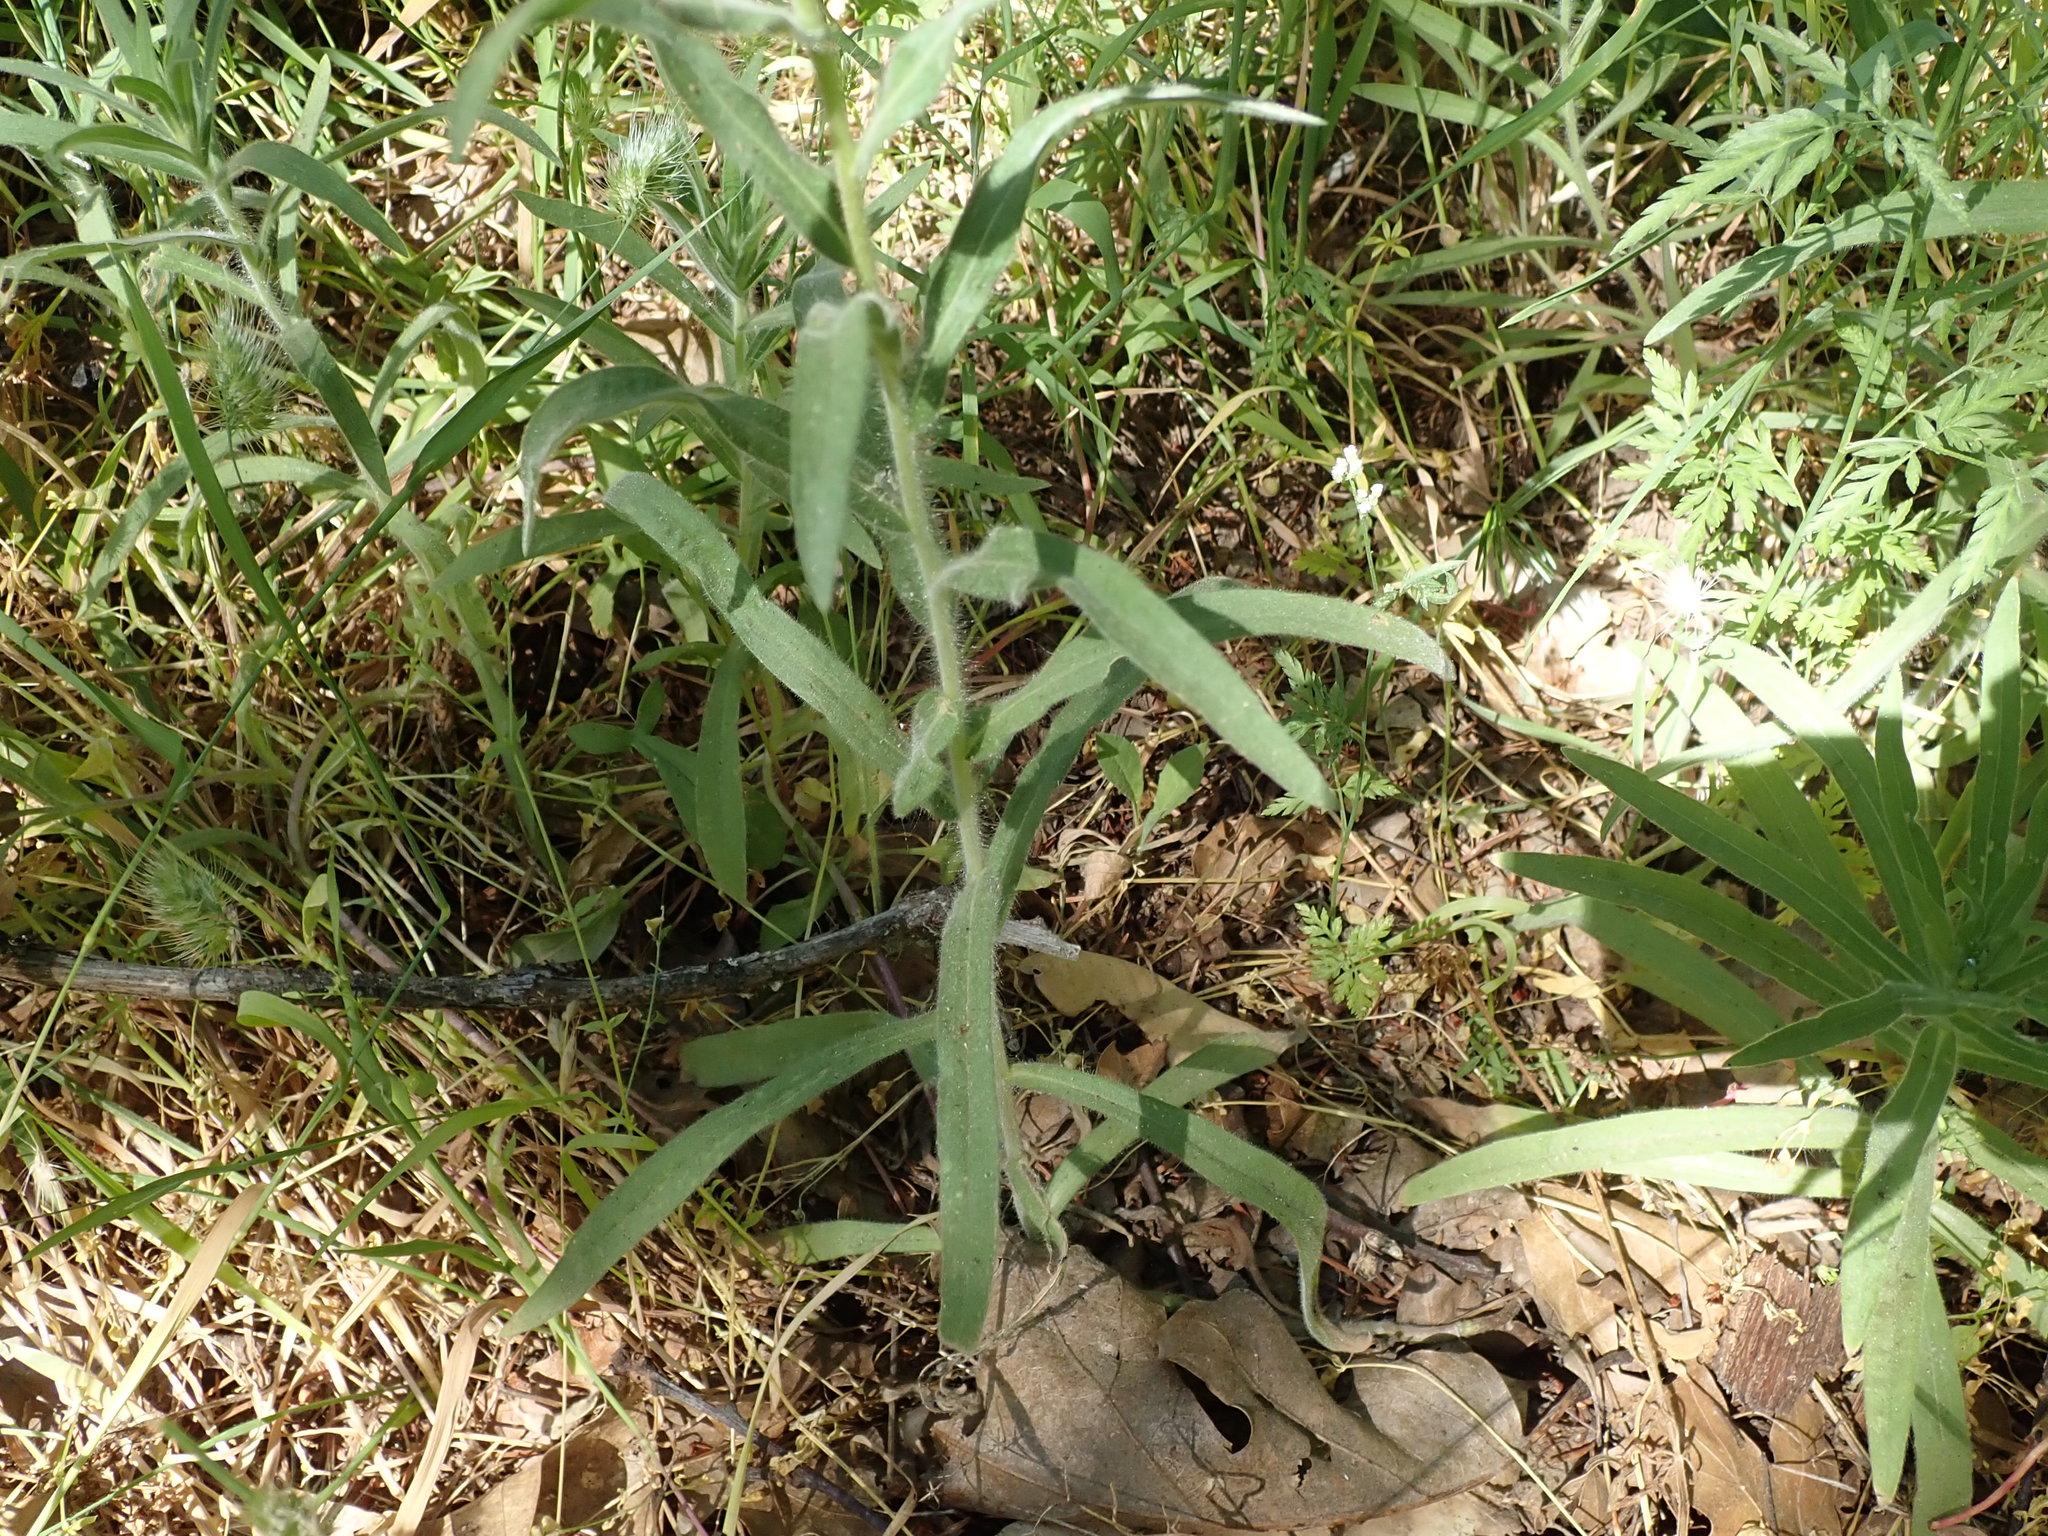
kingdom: Plantae
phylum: Tracheophyta
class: Magnoliopsida
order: Asterales
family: Asteraceae
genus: Madia
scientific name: Madia elegans
